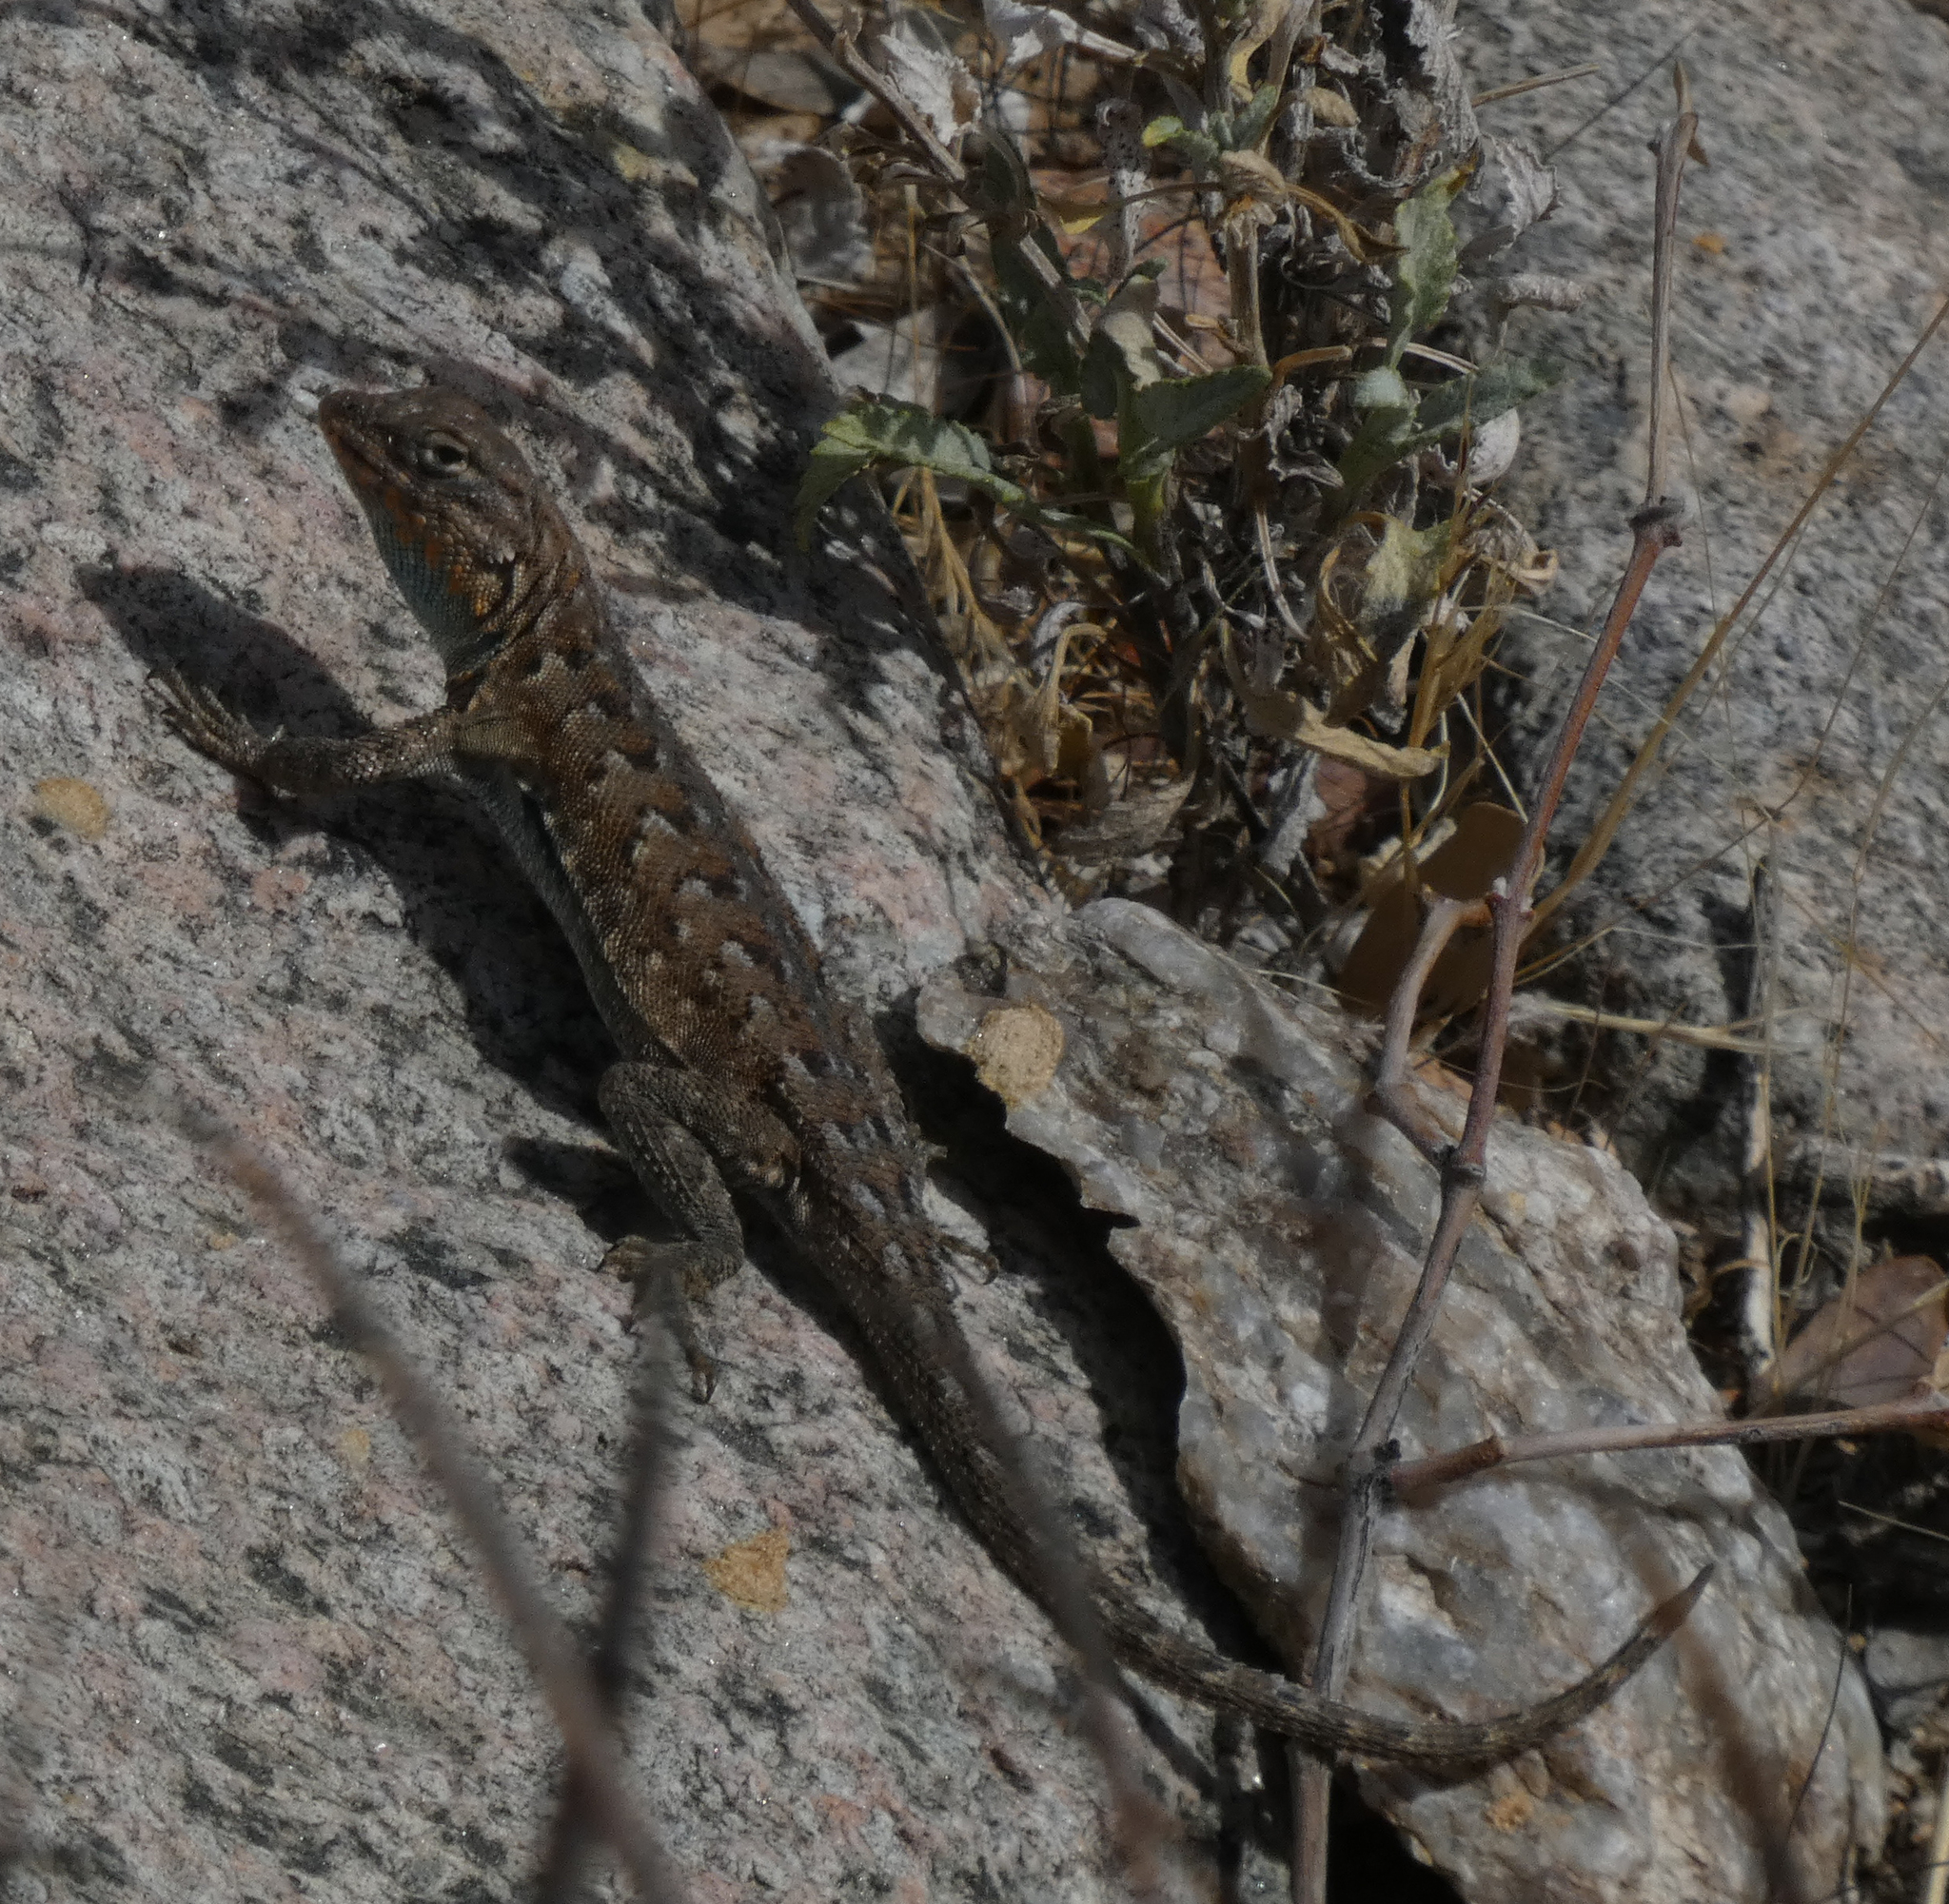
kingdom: Animalia
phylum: Chordata
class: Squamata
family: Phrynosomatidae
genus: Uta
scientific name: Uta stansburiana
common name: Side-blotched lizard
